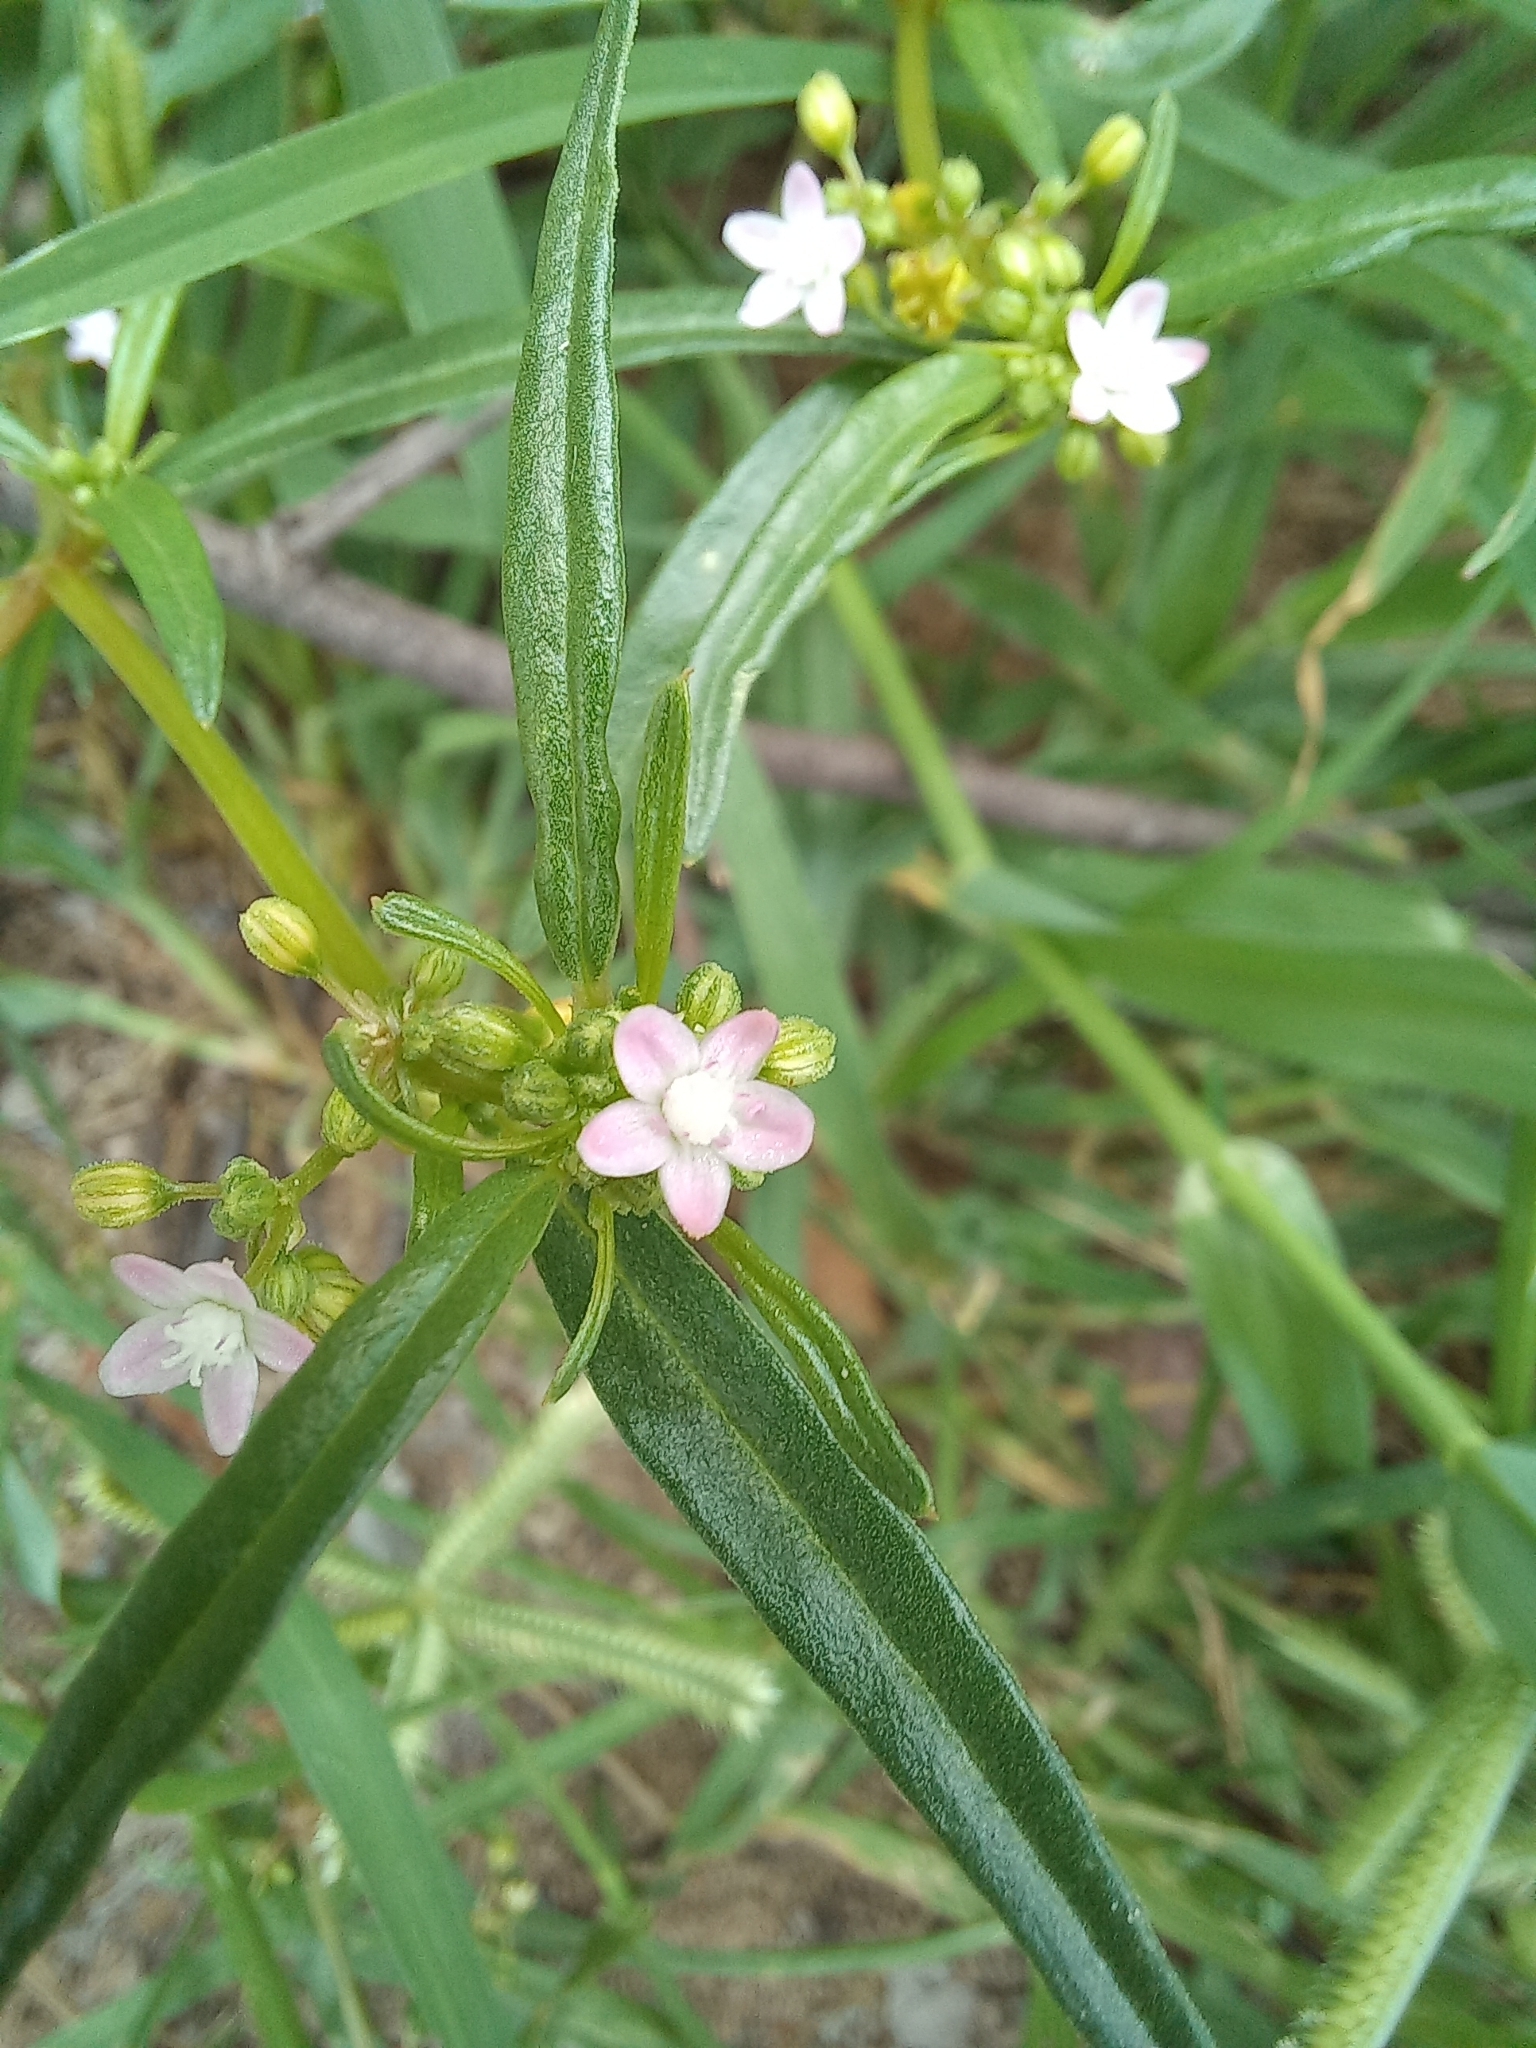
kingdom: Plantae
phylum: Tracheophyta
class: Magnoliopsida
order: Caryophyllales
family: Gisekiaceae
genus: Gisekia
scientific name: Gisekia pharnaceoides
